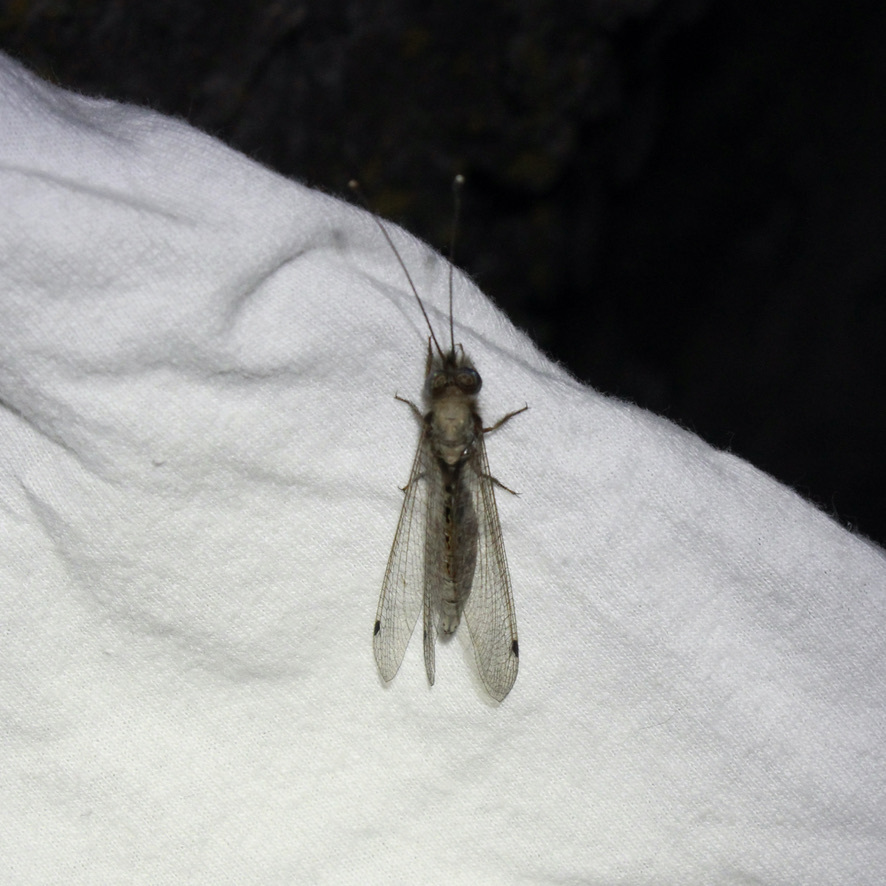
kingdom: Animalia
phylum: Arthropoda
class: Insecta
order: Neuroptera
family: Ascalaphidae
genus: Ululodes
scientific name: Ululodes macleayanus
